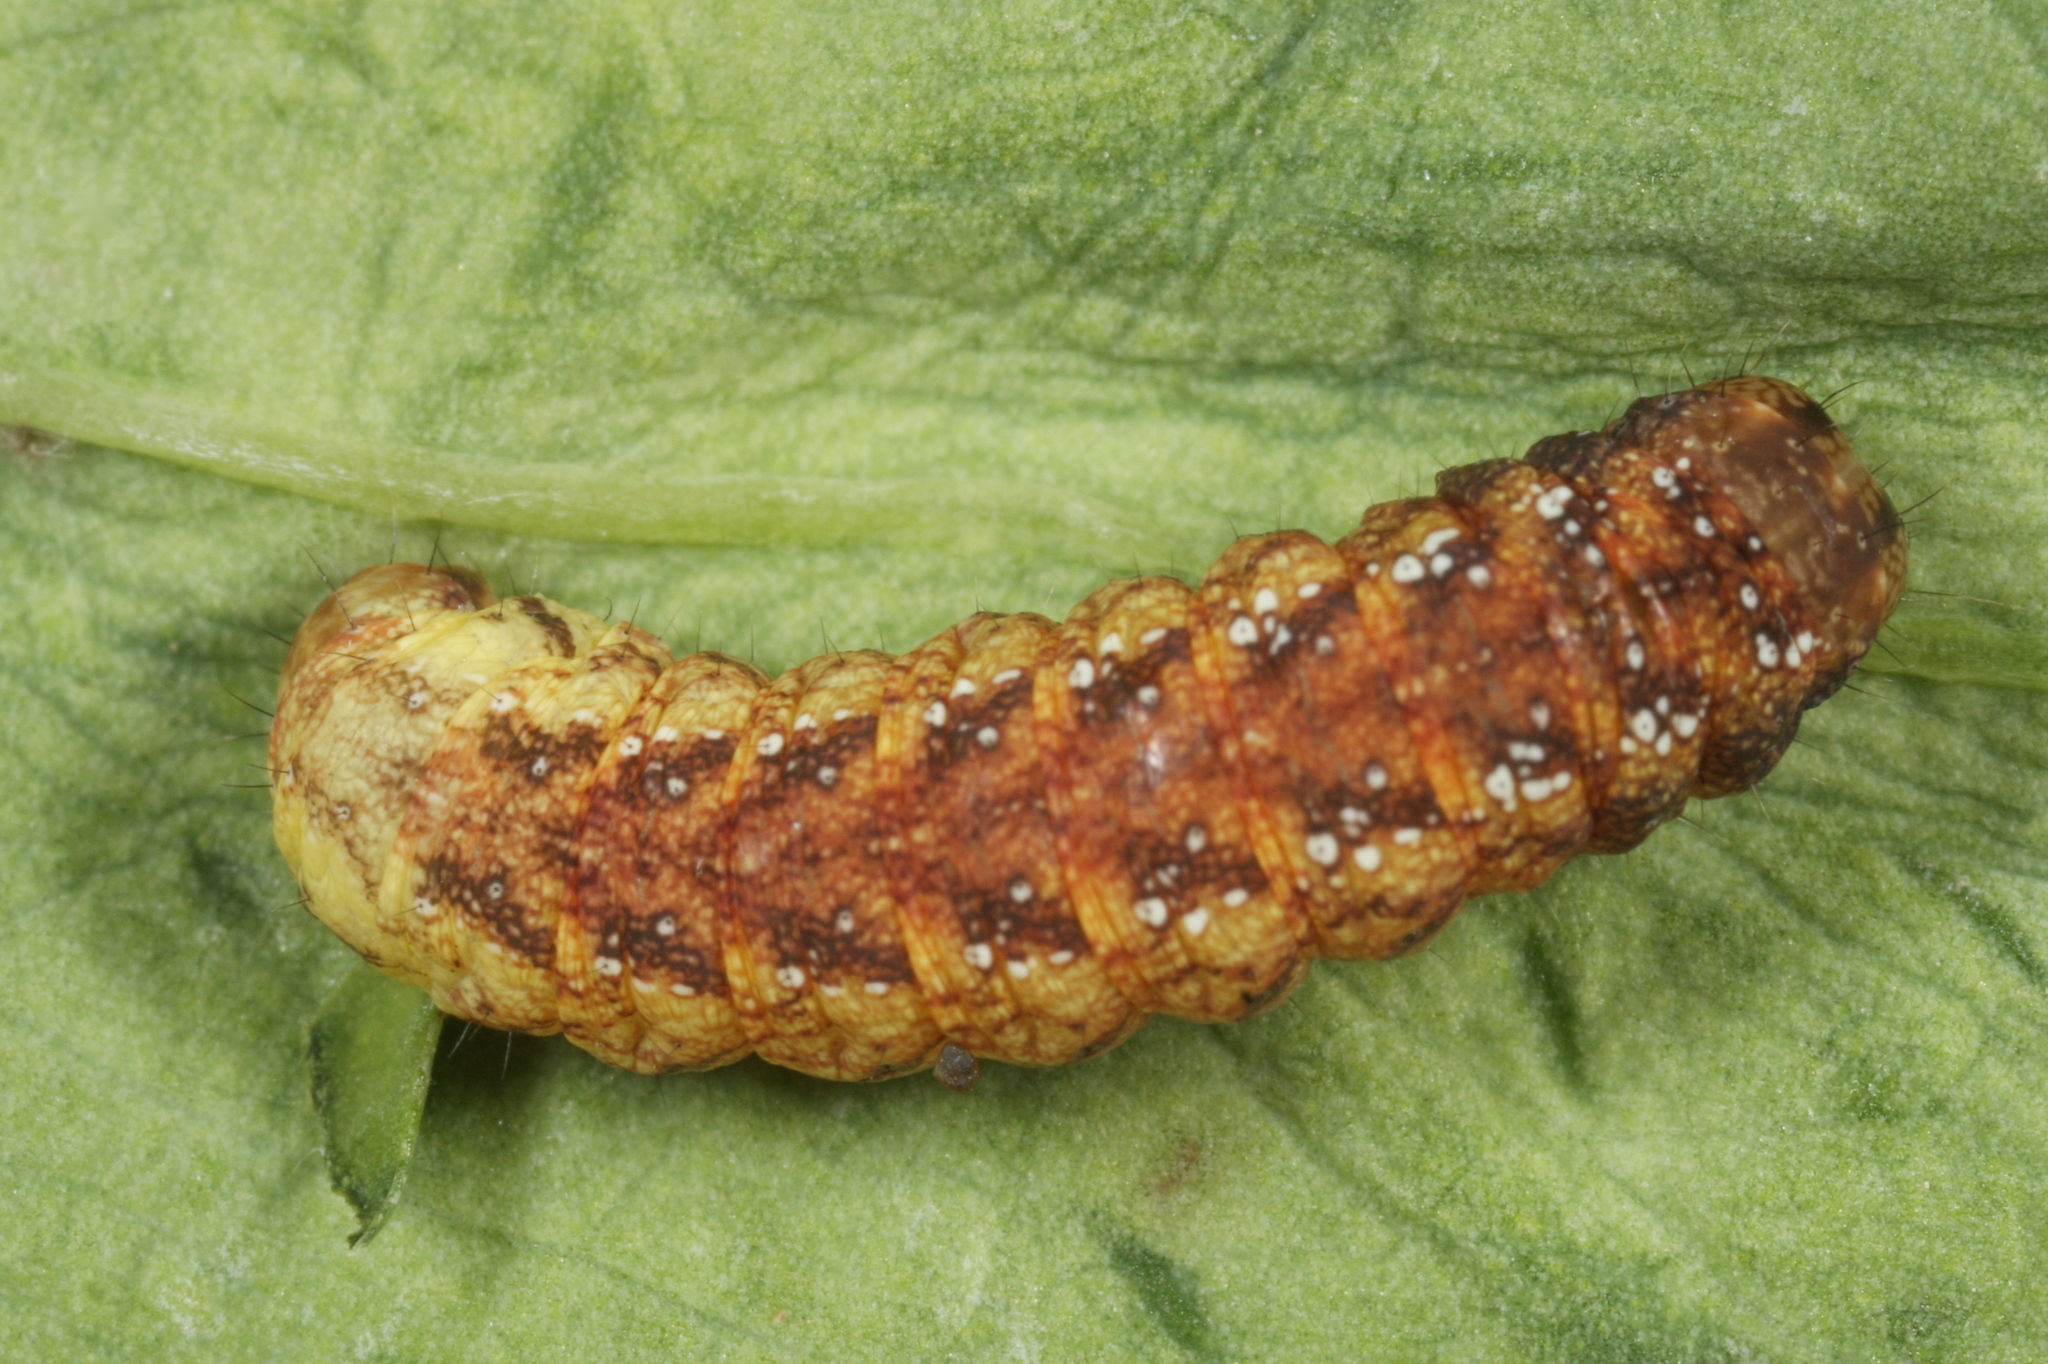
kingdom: Animalia
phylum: Arthropoda
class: Insecta
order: Lepidoptera
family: Noctuidae
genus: Sideridis
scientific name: Sideridis rivularis
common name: Campion
